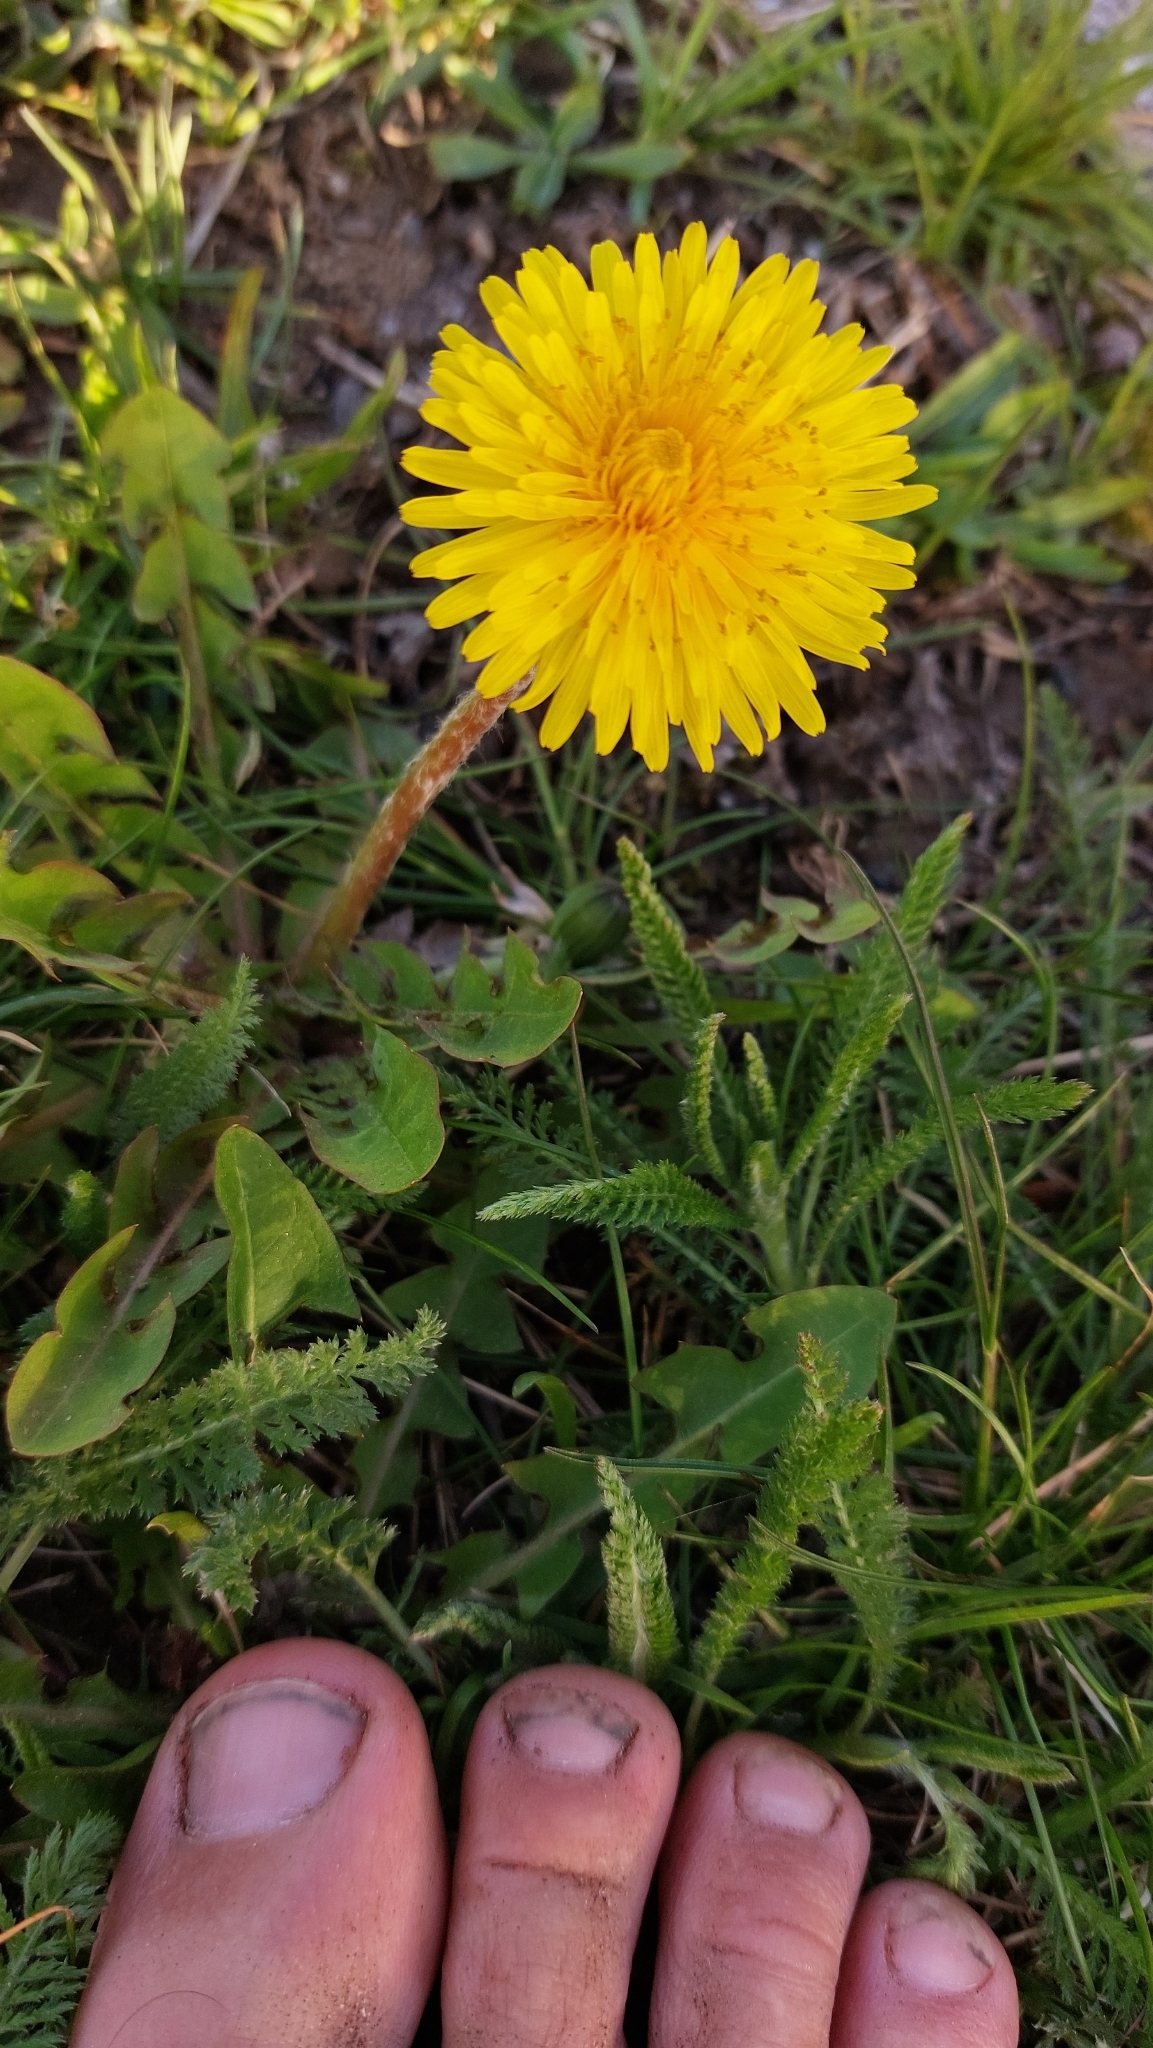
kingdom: Plantae
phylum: Tracheophyta
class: Magnoliopsida
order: Asterales
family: Asteraceae
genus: Taraxacum
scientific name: Taraxacum
